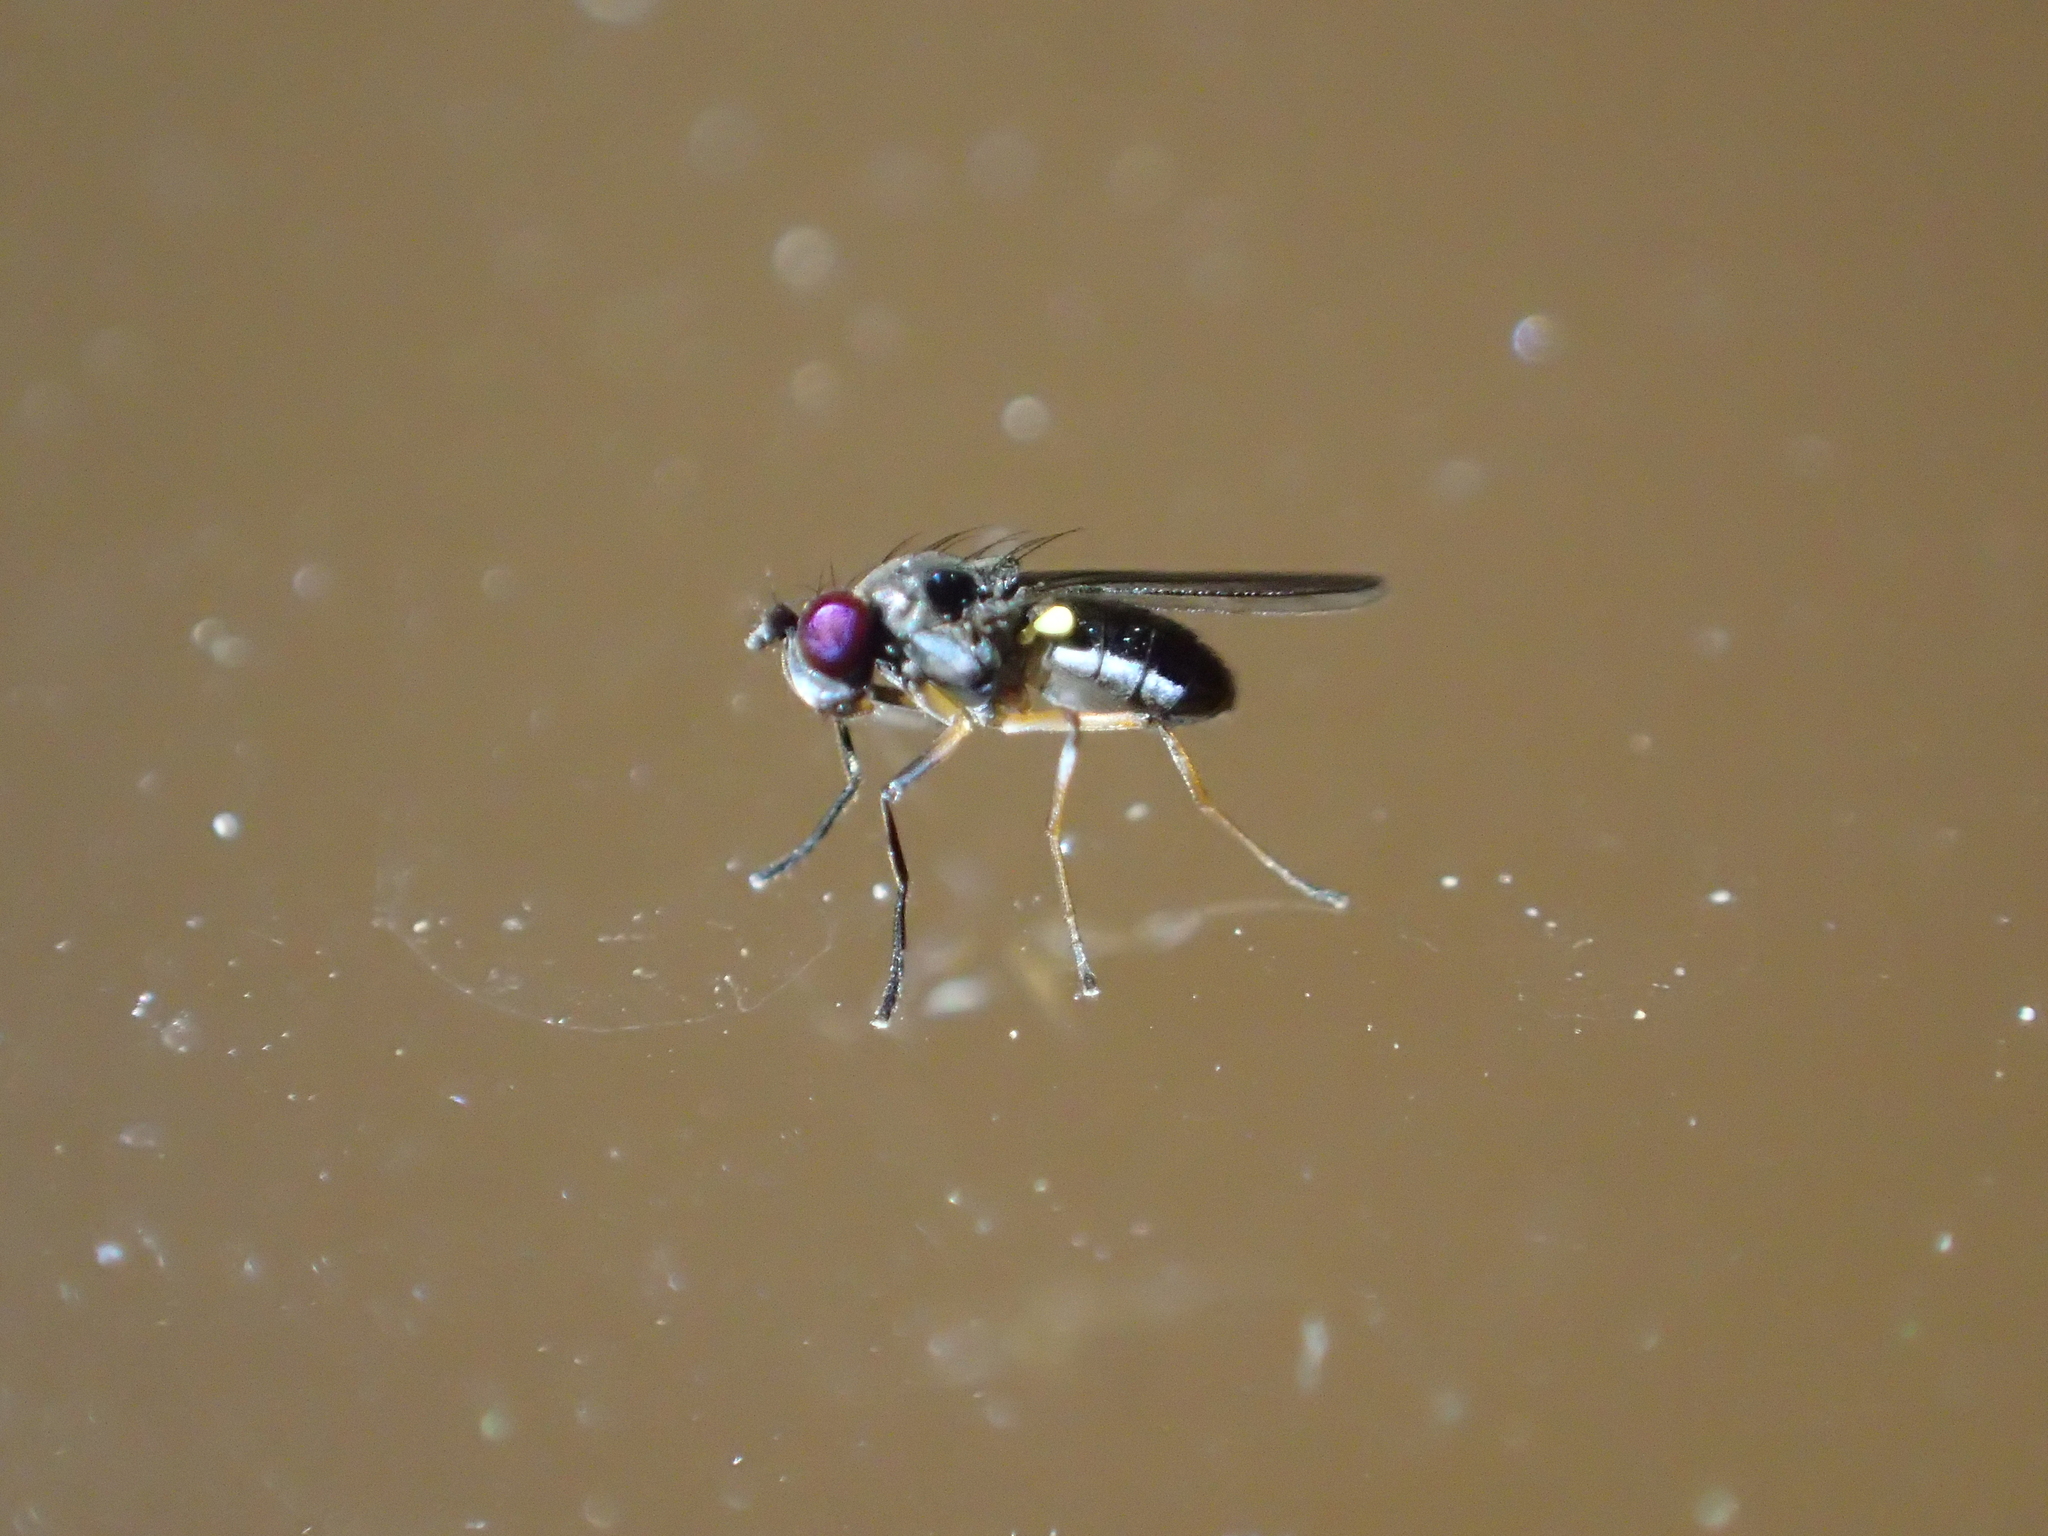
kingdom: Animalia
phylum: Arthropoda
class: Insecta
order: Diptera
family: Ephydridae
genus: Hydrellia
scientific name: Hydrellia tritici
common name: Shore fly
